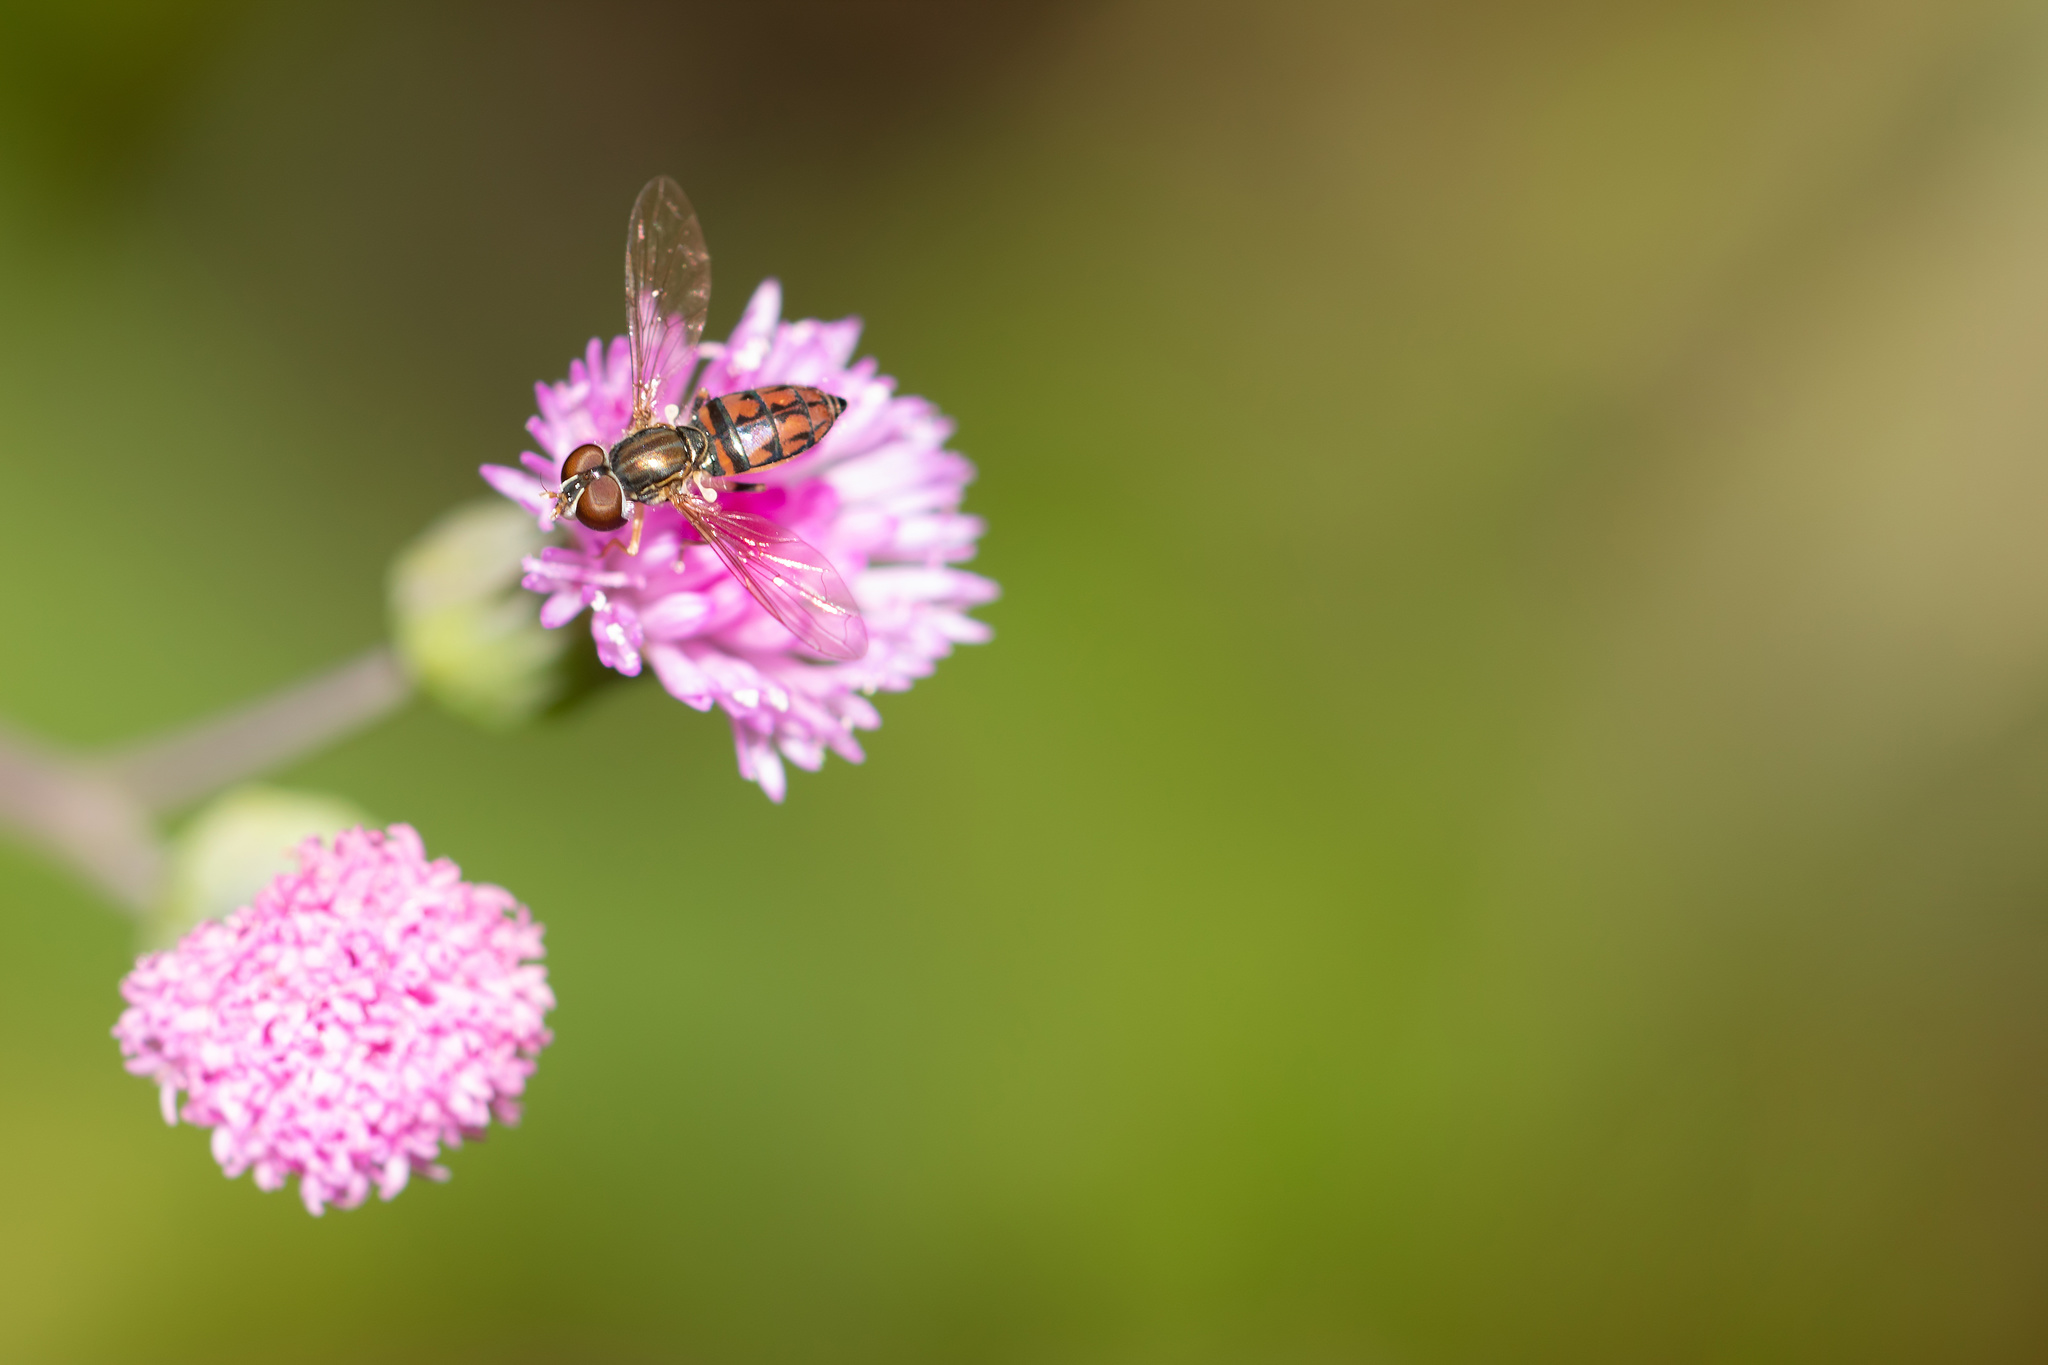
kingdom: Animalia
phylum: Arthropoda
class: Insecta
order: Diptera
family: Syrphidae
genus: Toxomerus
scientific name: Toxomerus boscii
